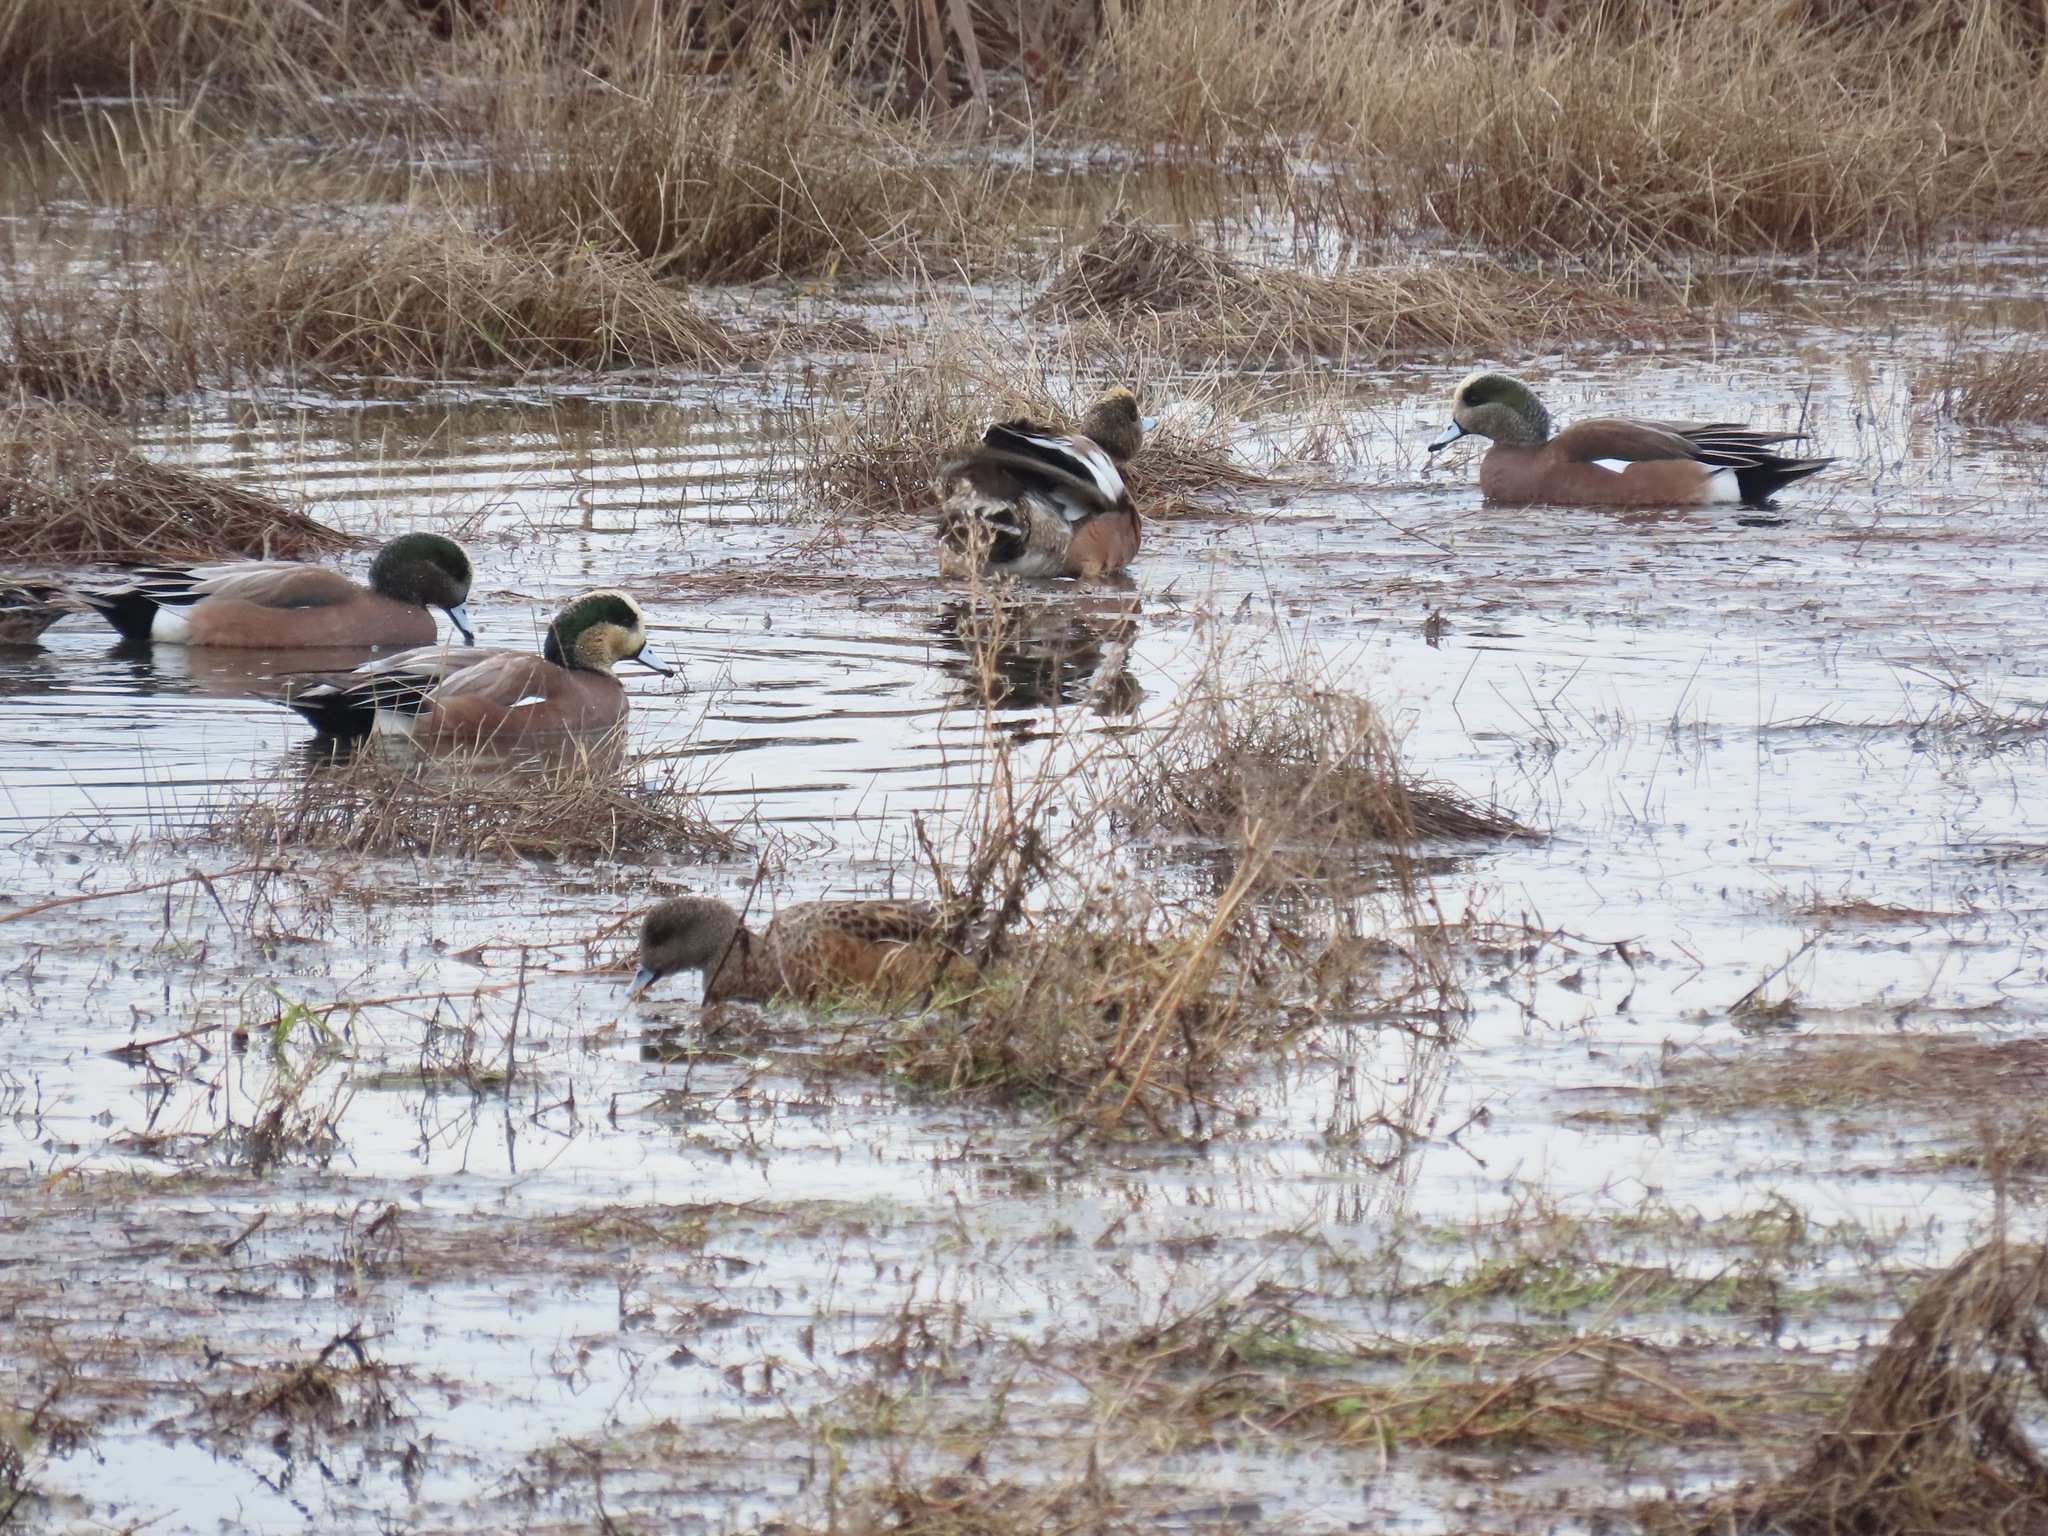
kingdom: Animalia
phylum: Chordata
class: Aves
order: Anseriformes
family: Anatidae
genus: Mareca
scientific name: Mareca americana
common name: American wigeon
